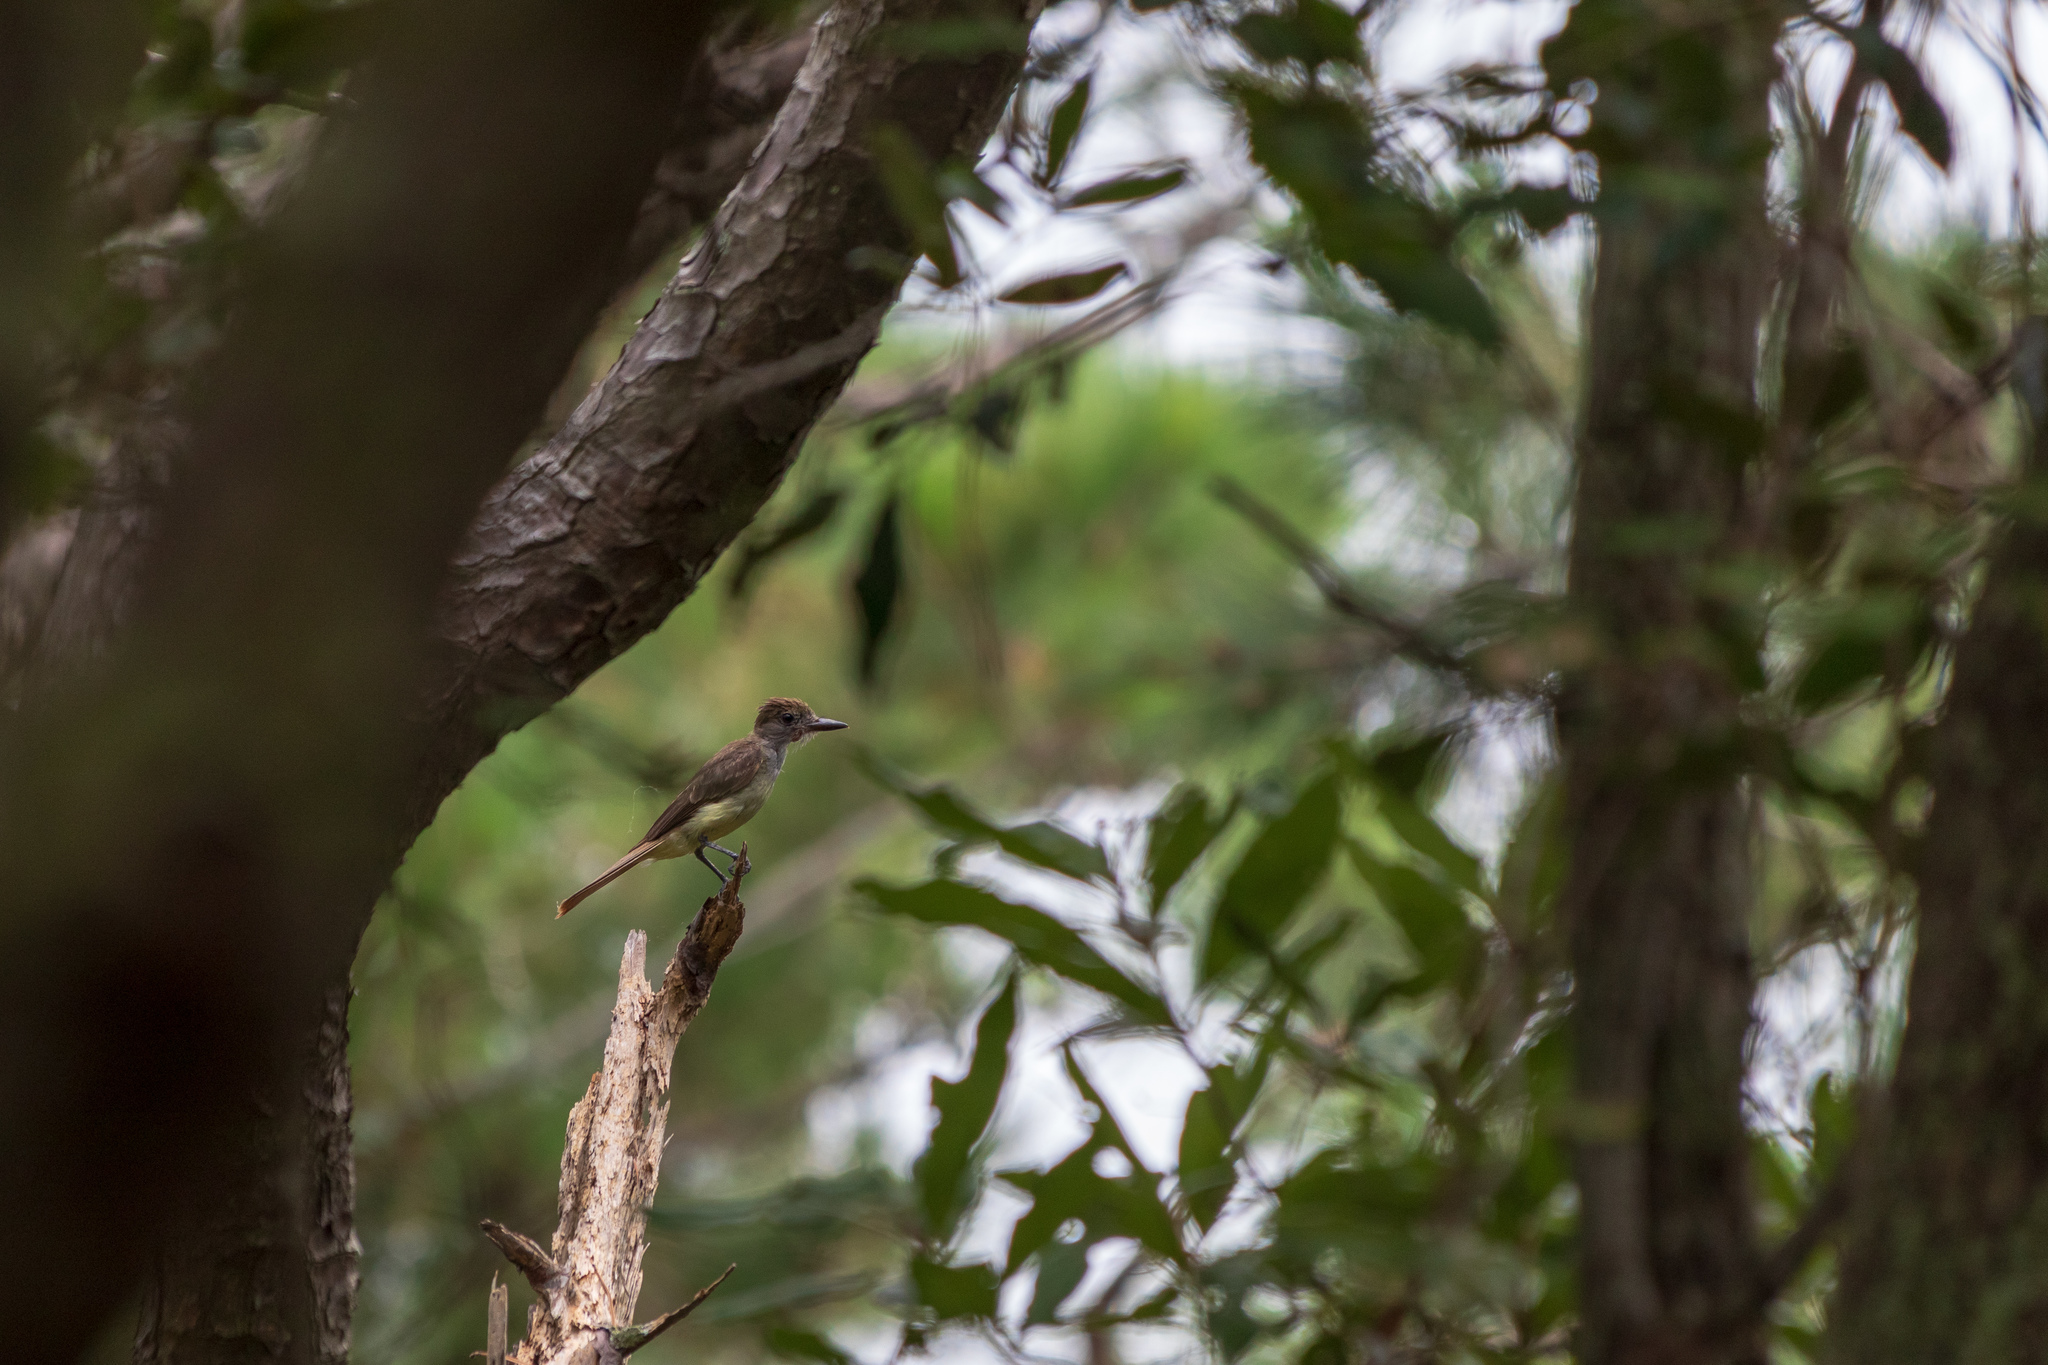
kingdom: Animalia
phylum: Chordata
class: Aves
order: Passeriformes
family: Tyrannidae
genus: Myiarchus
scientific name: Myiarchus crinitus
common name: Great crested flycatcher
